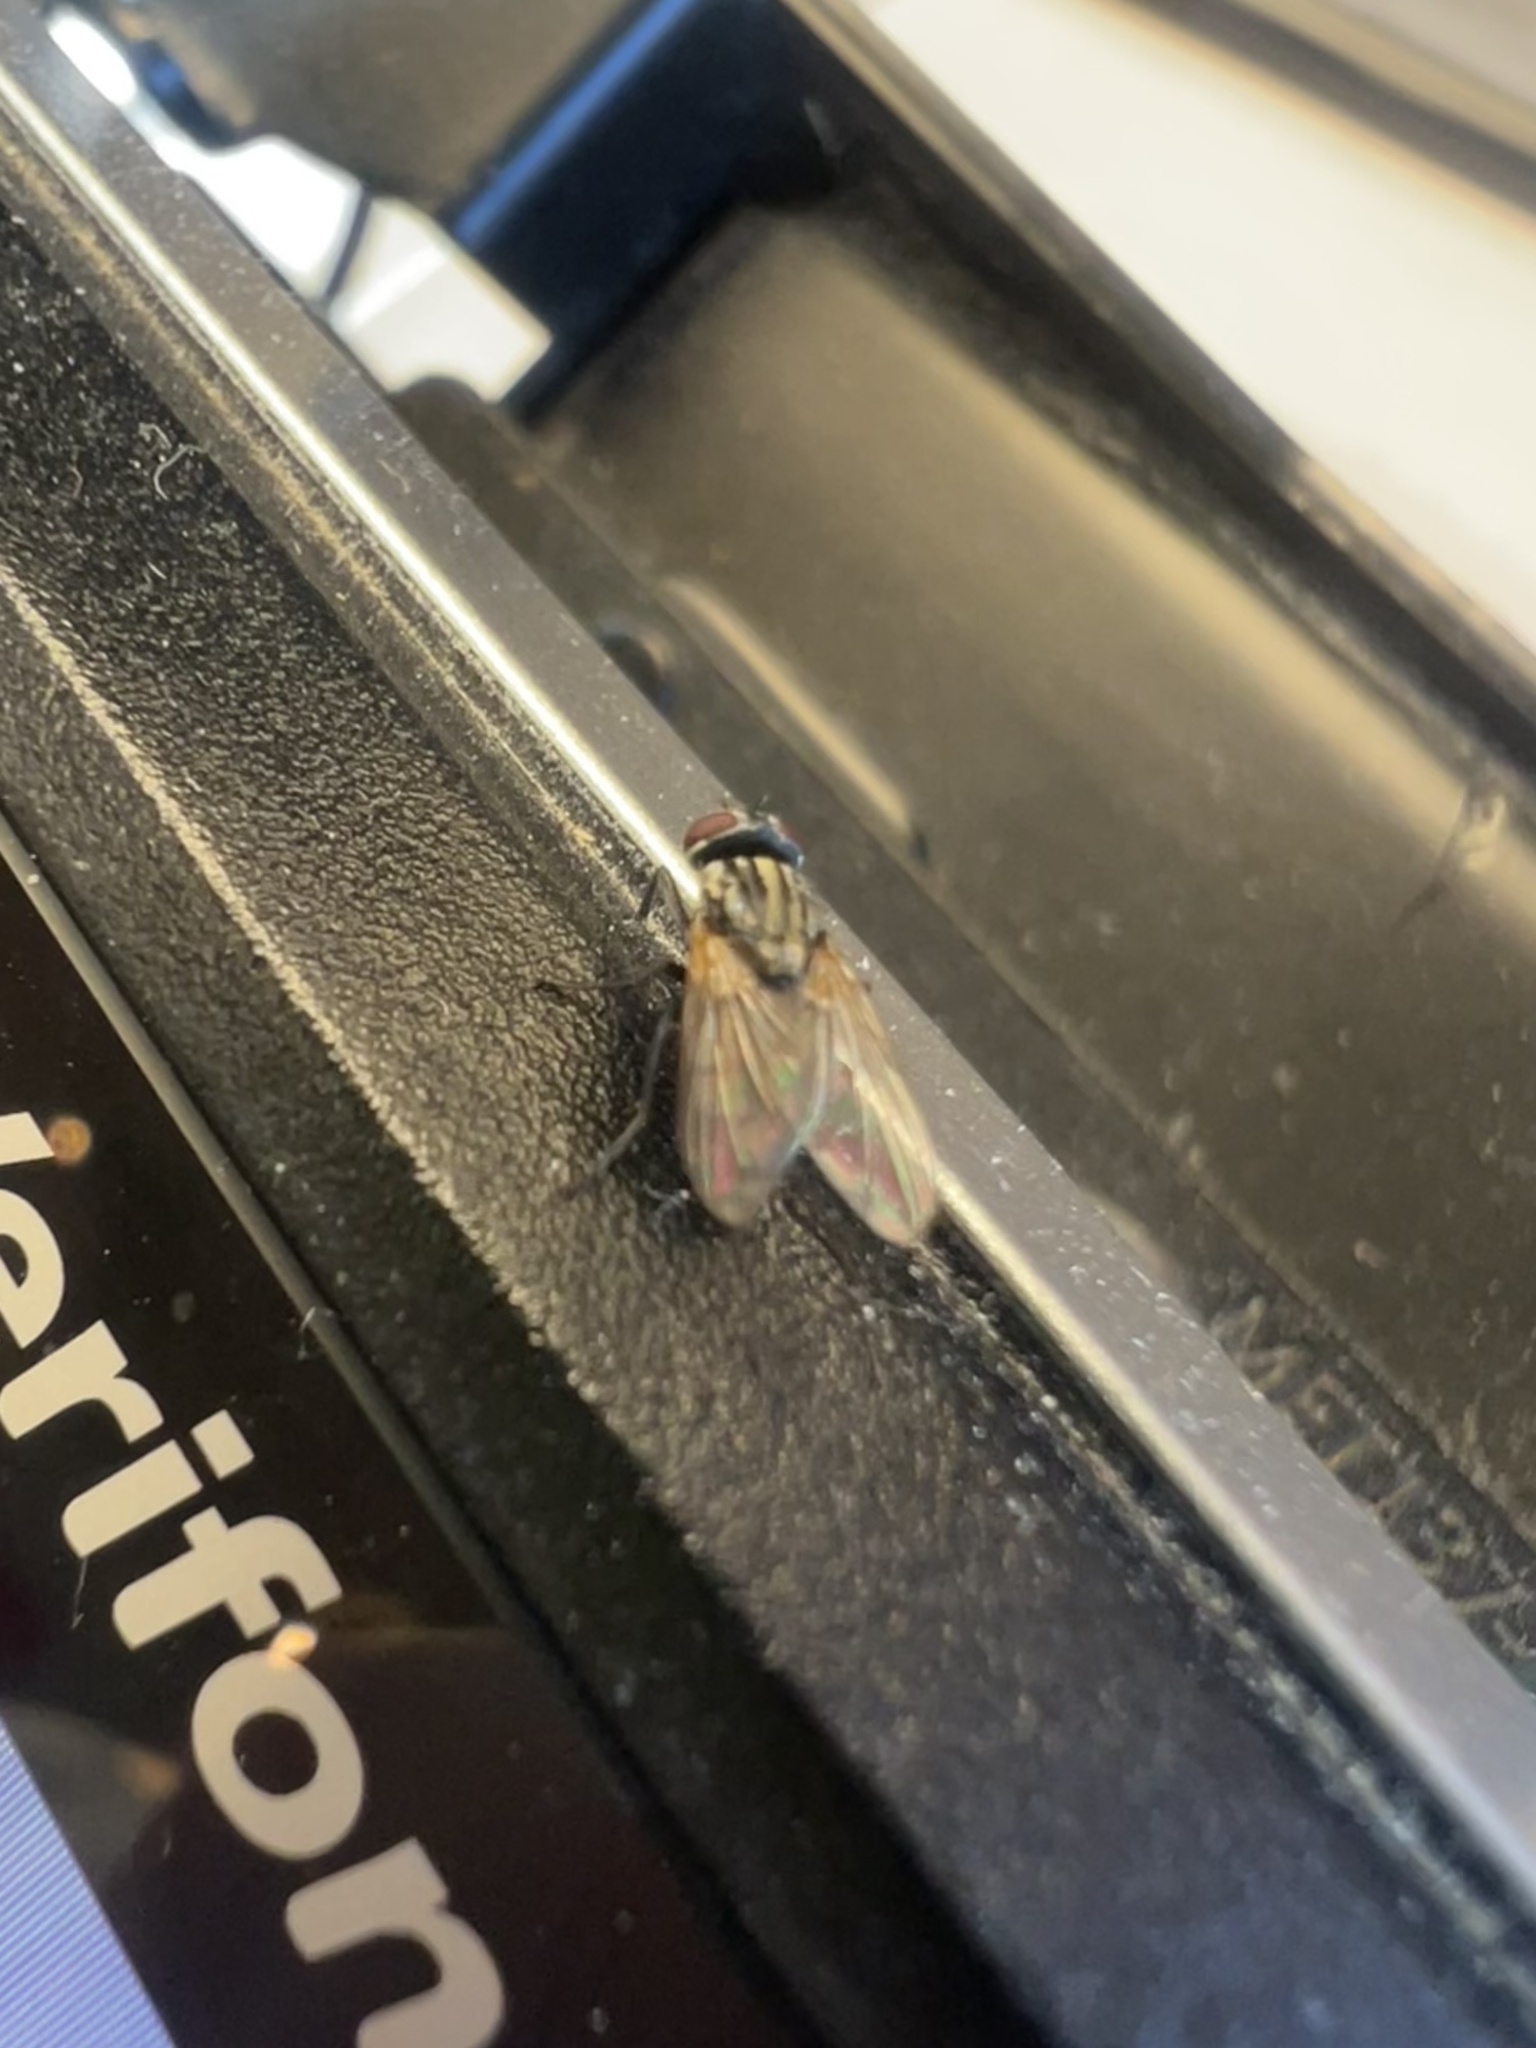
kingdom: Animalia
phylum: Arthropoda
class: Insecta
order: Diptera
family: Muscidae
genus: Musca
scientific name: Musca domestica
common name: House fly
